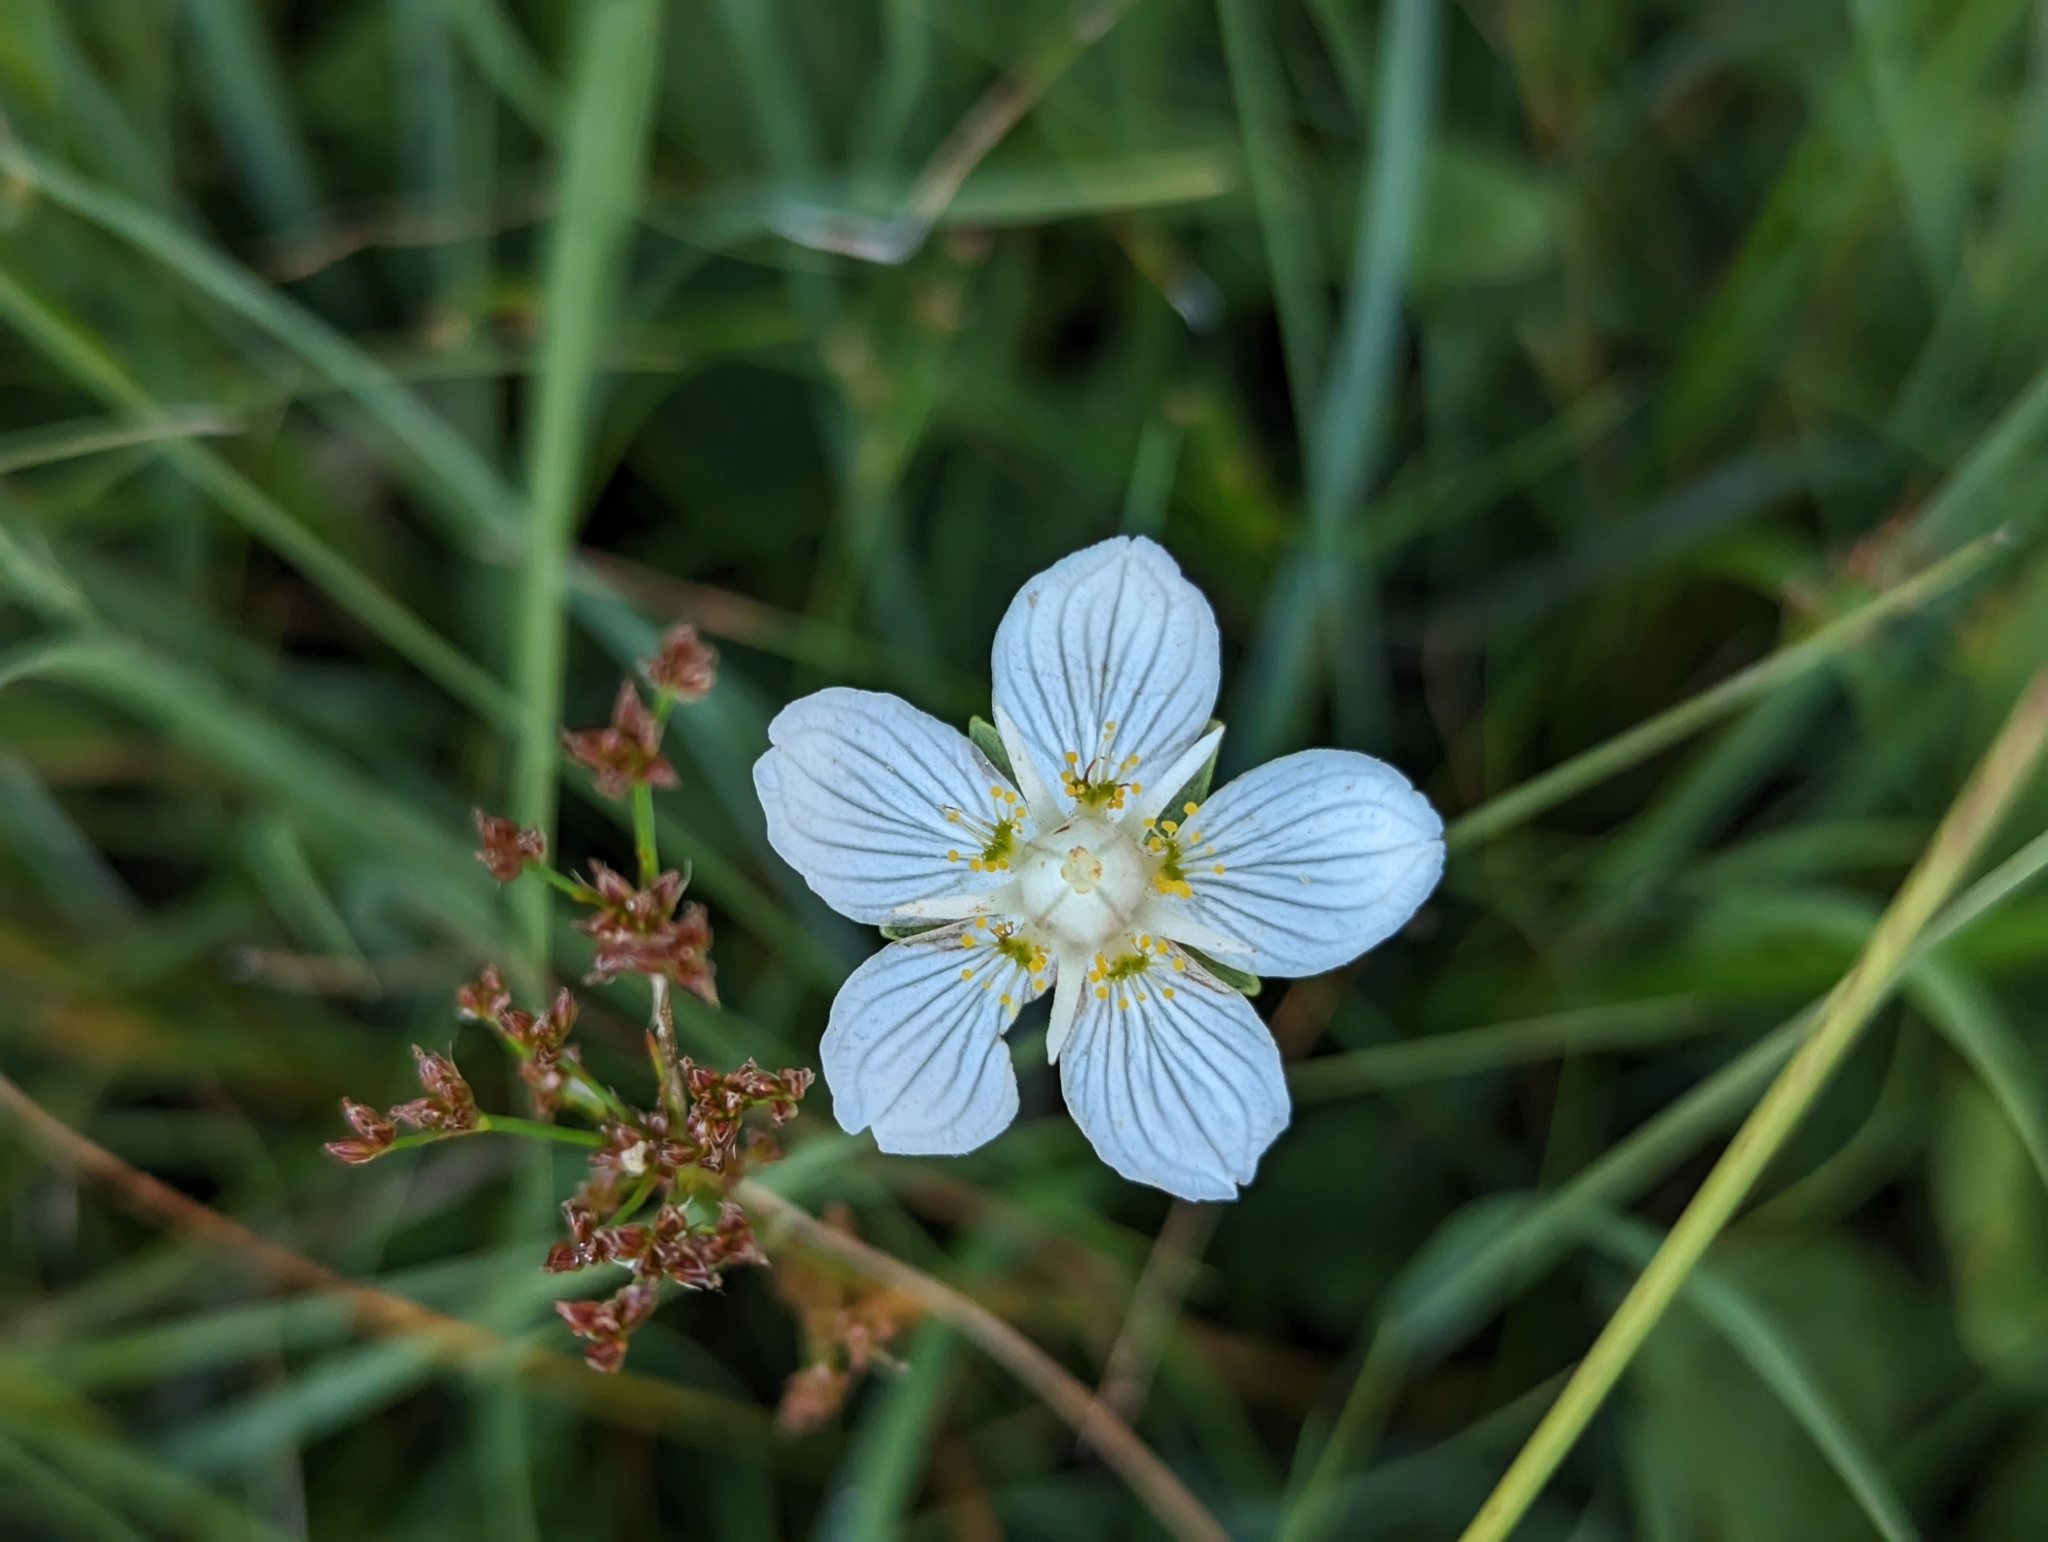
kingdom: Plantae
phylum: Tracheophyta
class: Magnoliopsida
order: Celastrales
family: Parnassiaceae
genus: Parnassia
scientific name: Parnassia palustris
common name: Grass-of-parnassus
